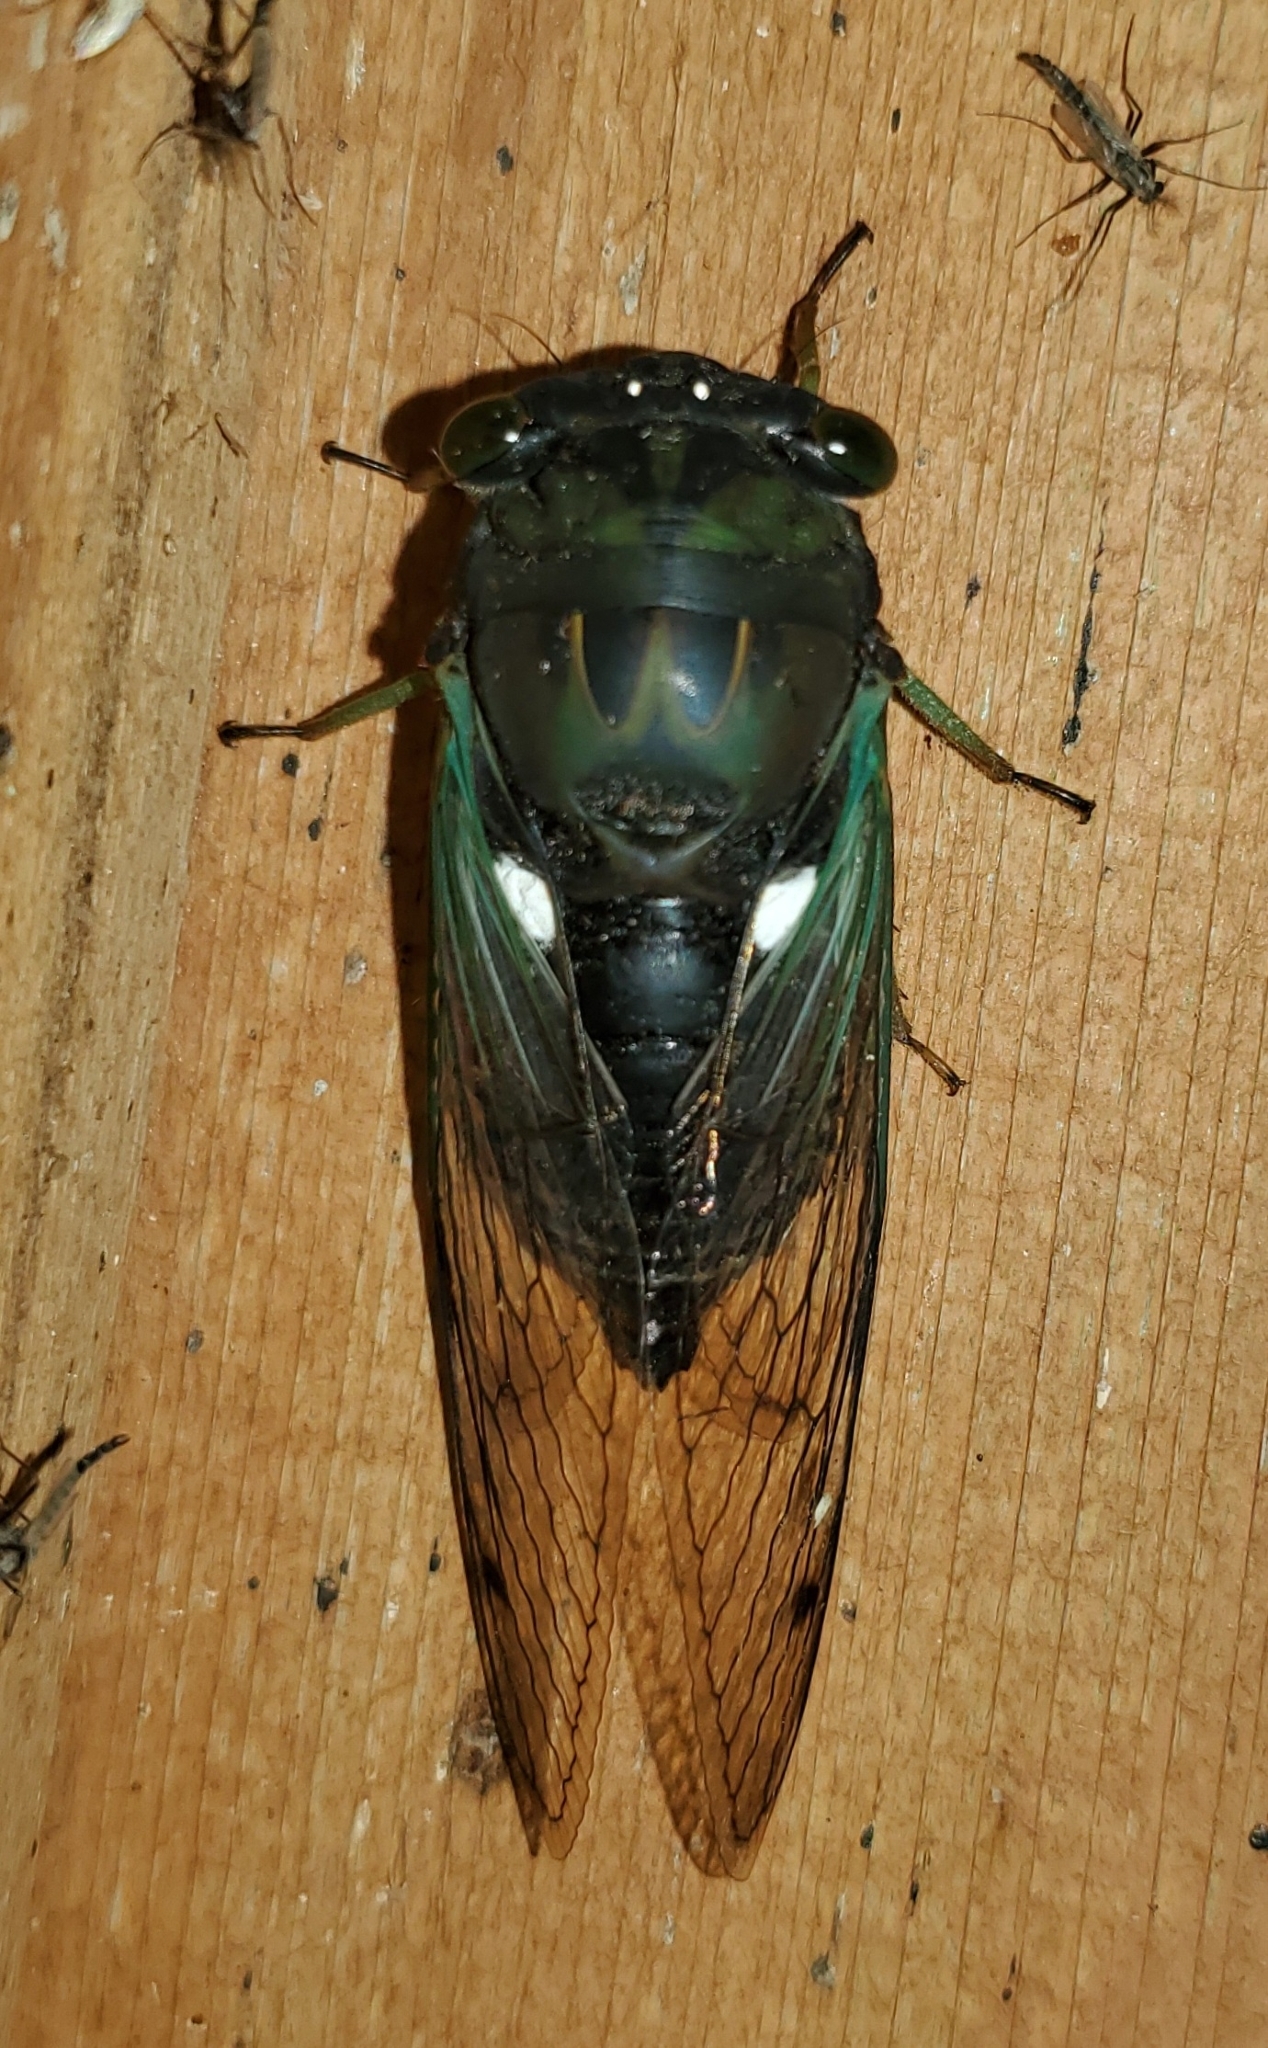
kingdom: Animalia
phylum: Arthropoda
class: Insecta
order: Hemiptera
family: Cicadidae
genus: Neotibicen
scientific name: Neotibicen tibicen
